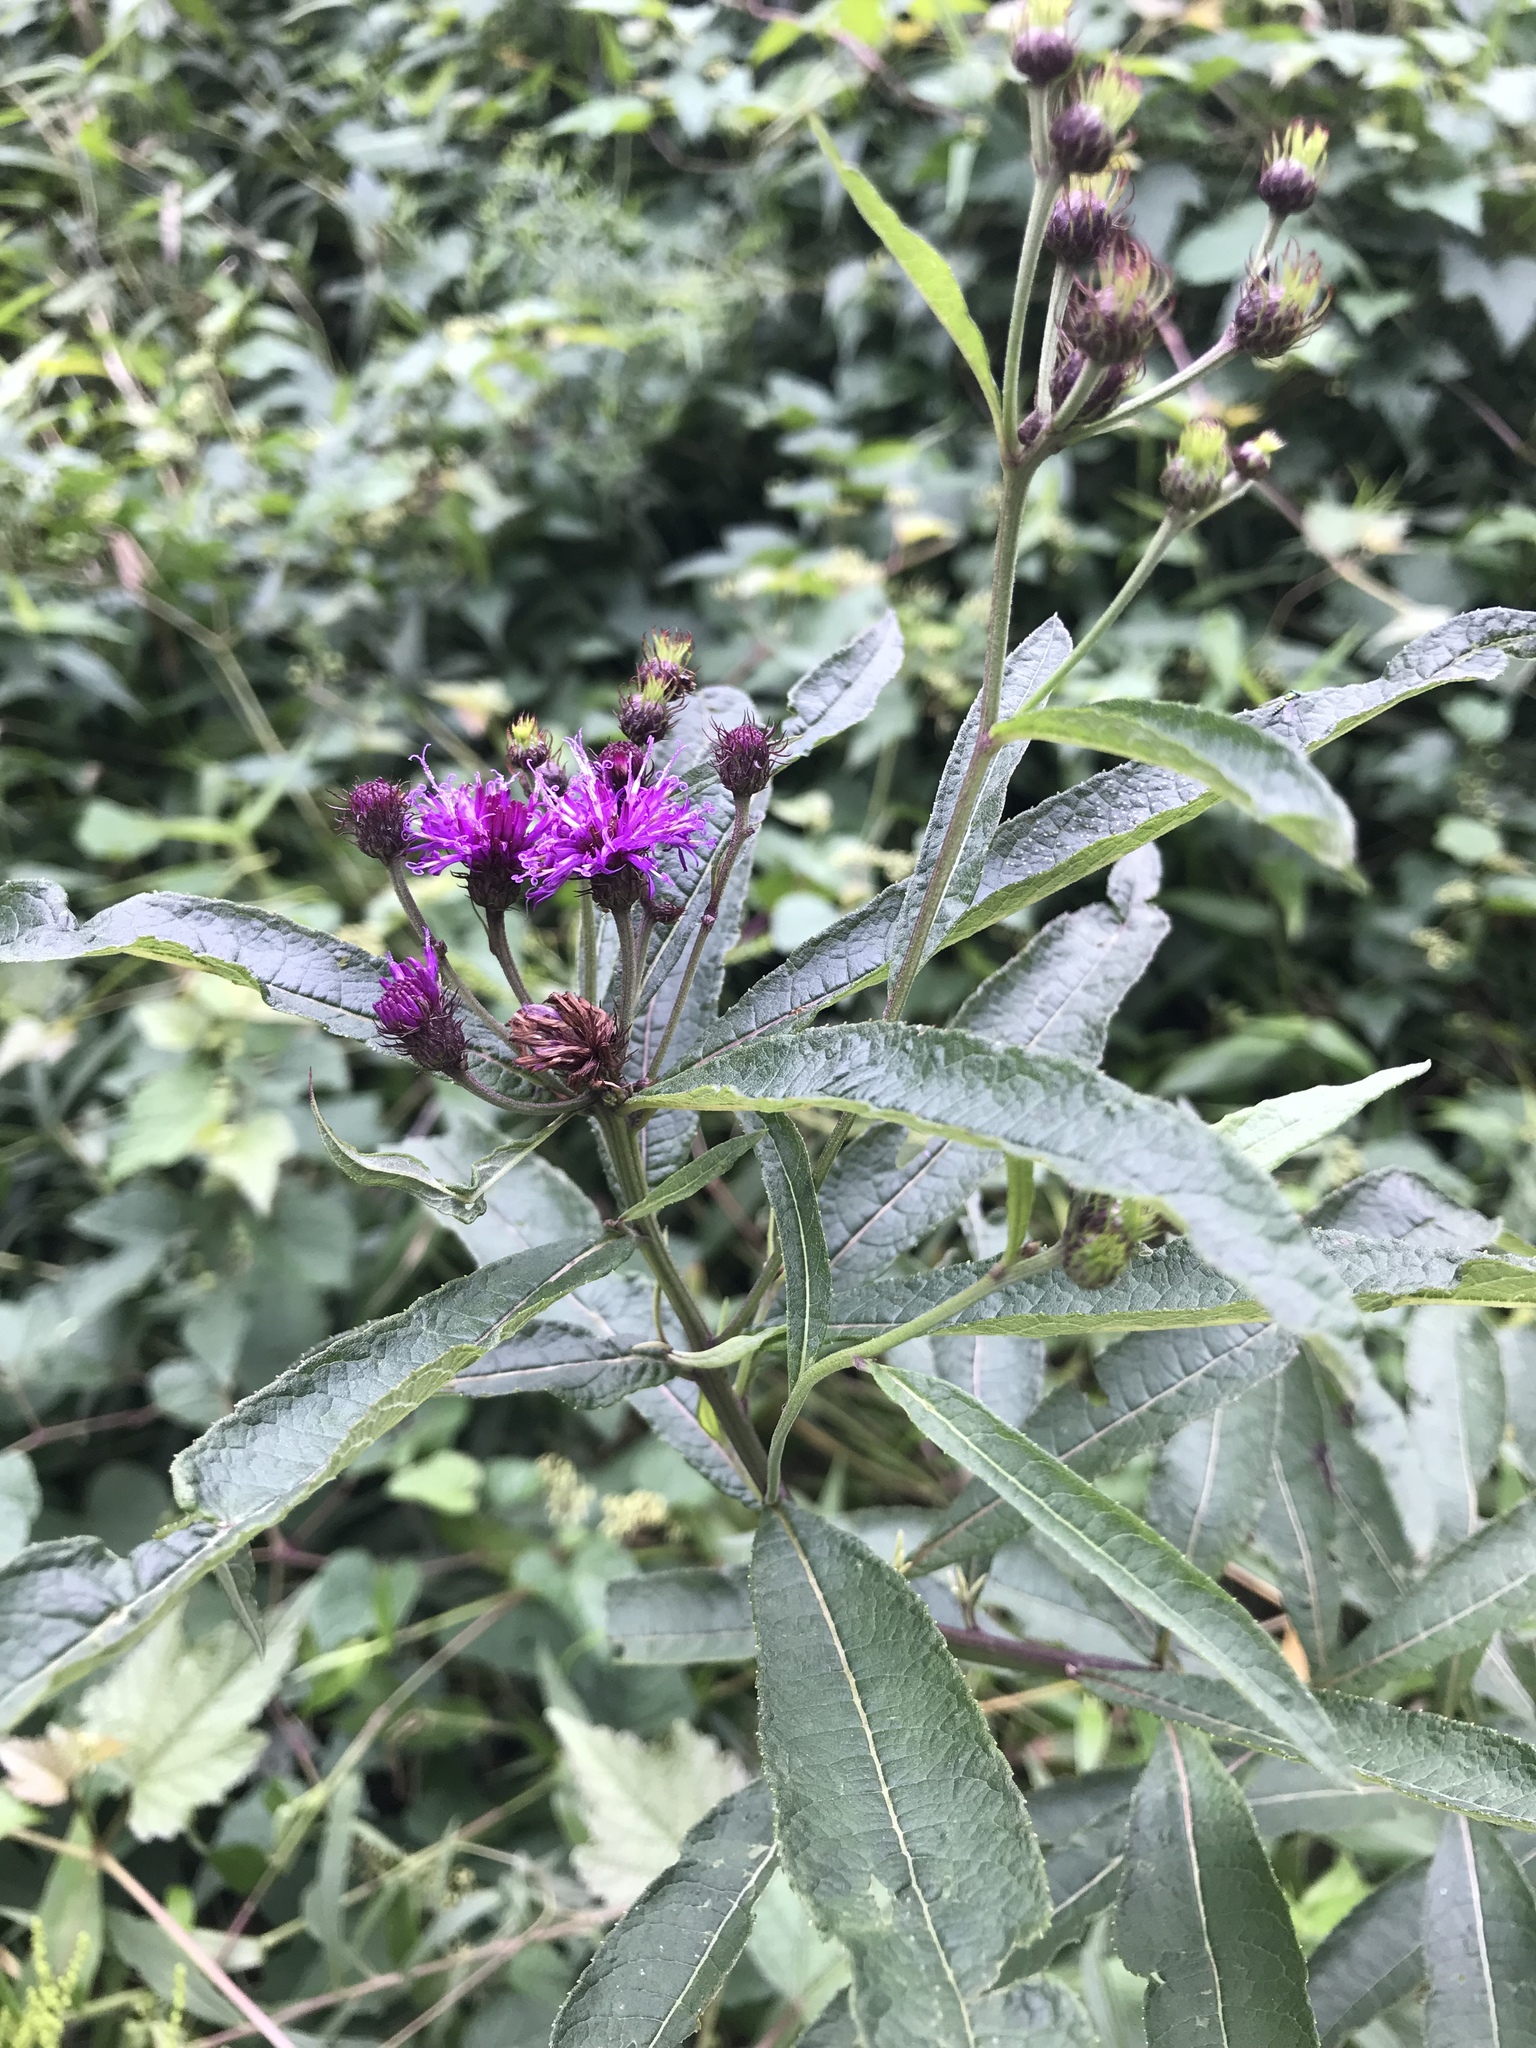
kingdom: Plantae
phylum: Tracheophyta
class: Magnoliopsida
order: Asterales
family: Asteraceae
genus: Vernonia
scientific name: Vernonia noveboracensis
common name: New york ironweed
